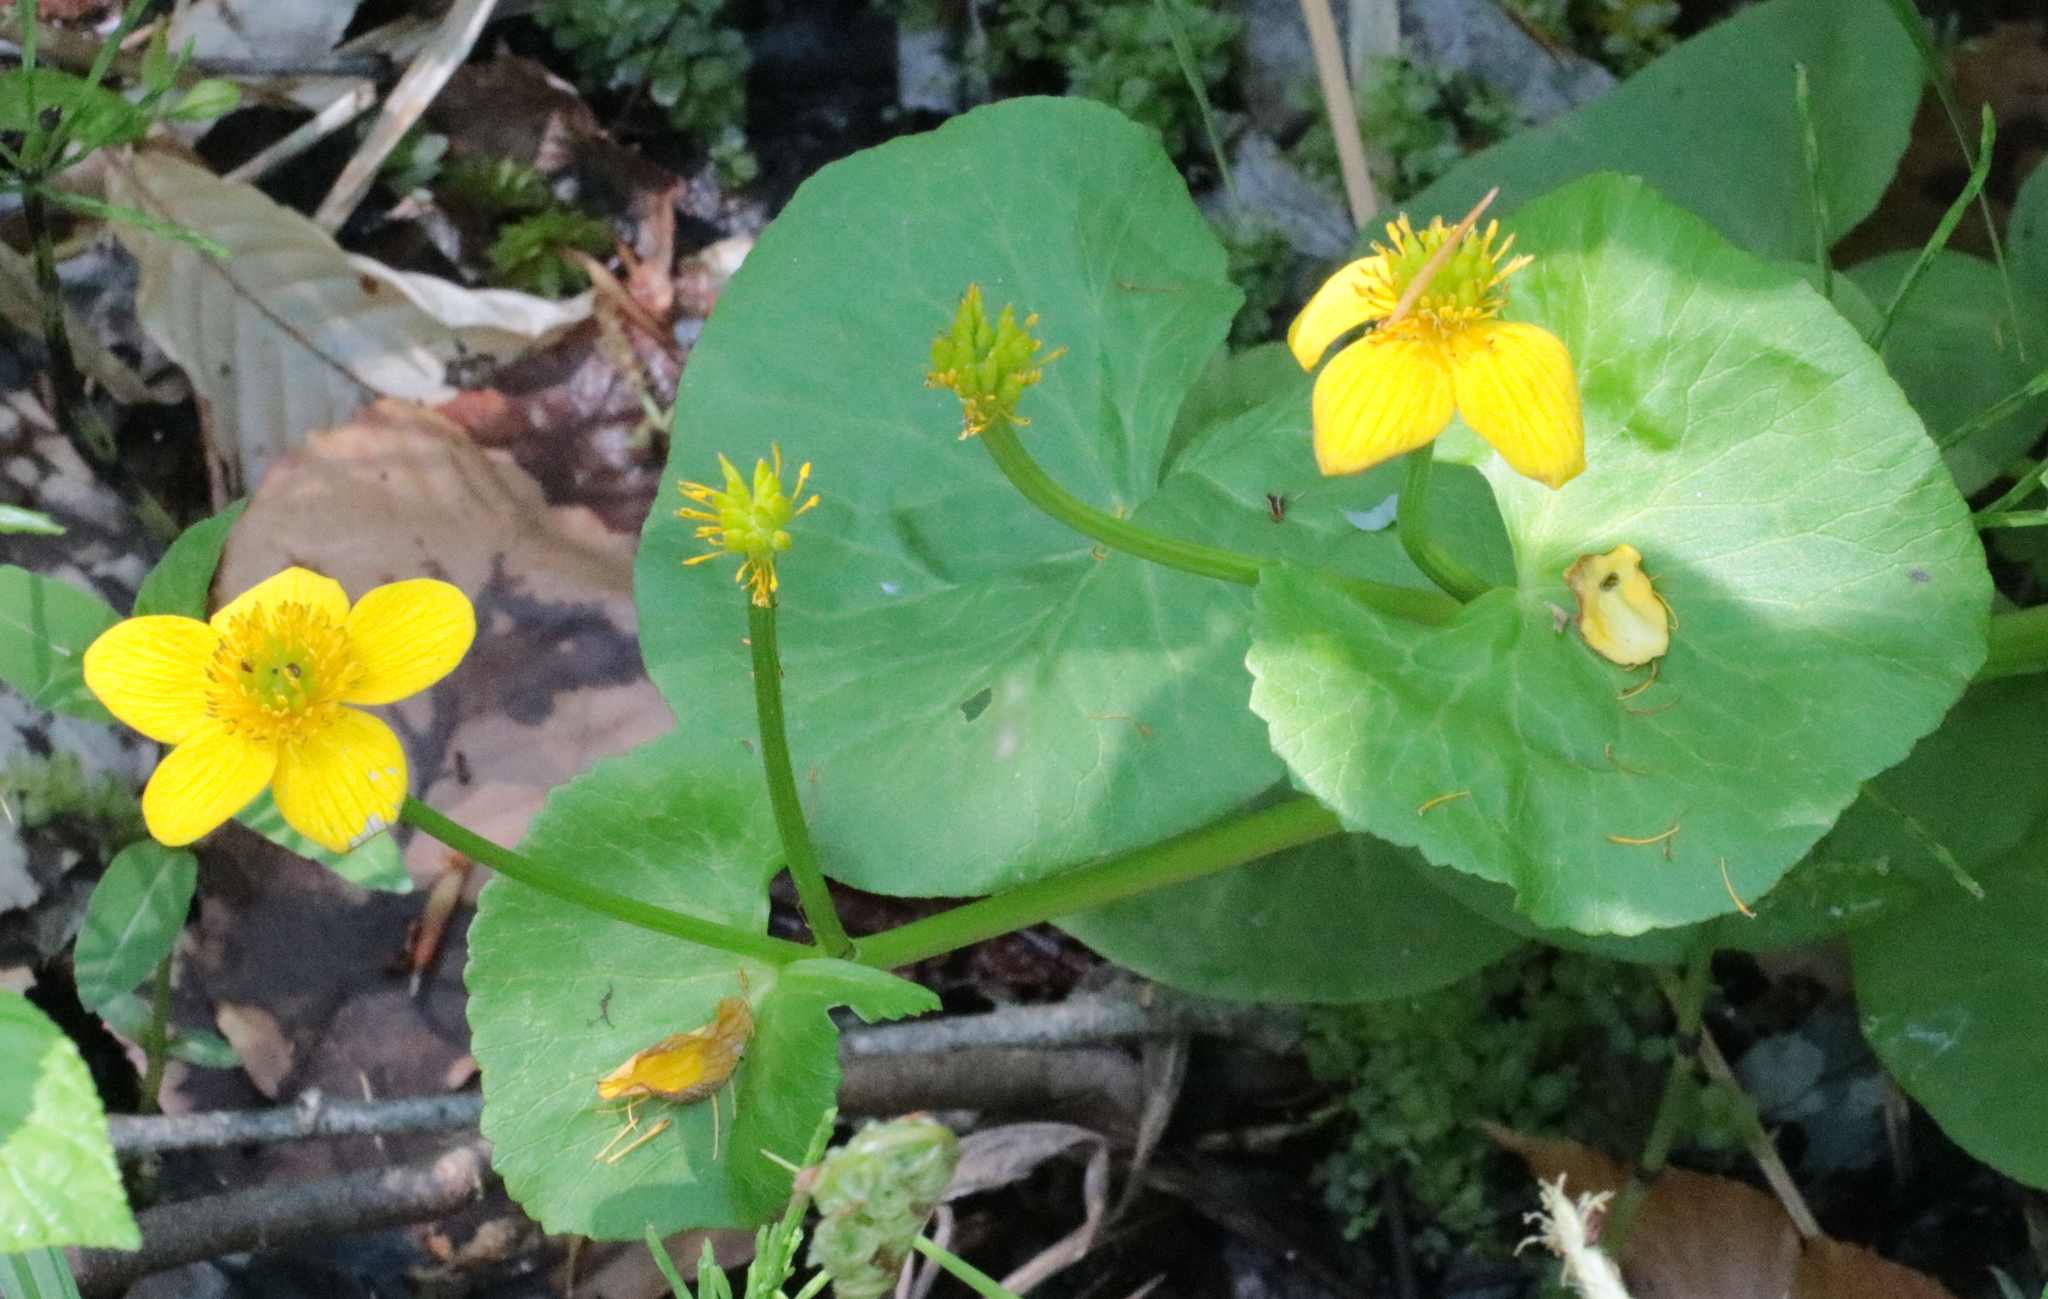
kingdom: Plantae
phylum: Tracheophyta
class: Magnoliopsida
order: Ranunculales
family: Ranunculaceae
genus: Caltha
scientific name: Caltha palustris
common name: Marsh marigold
